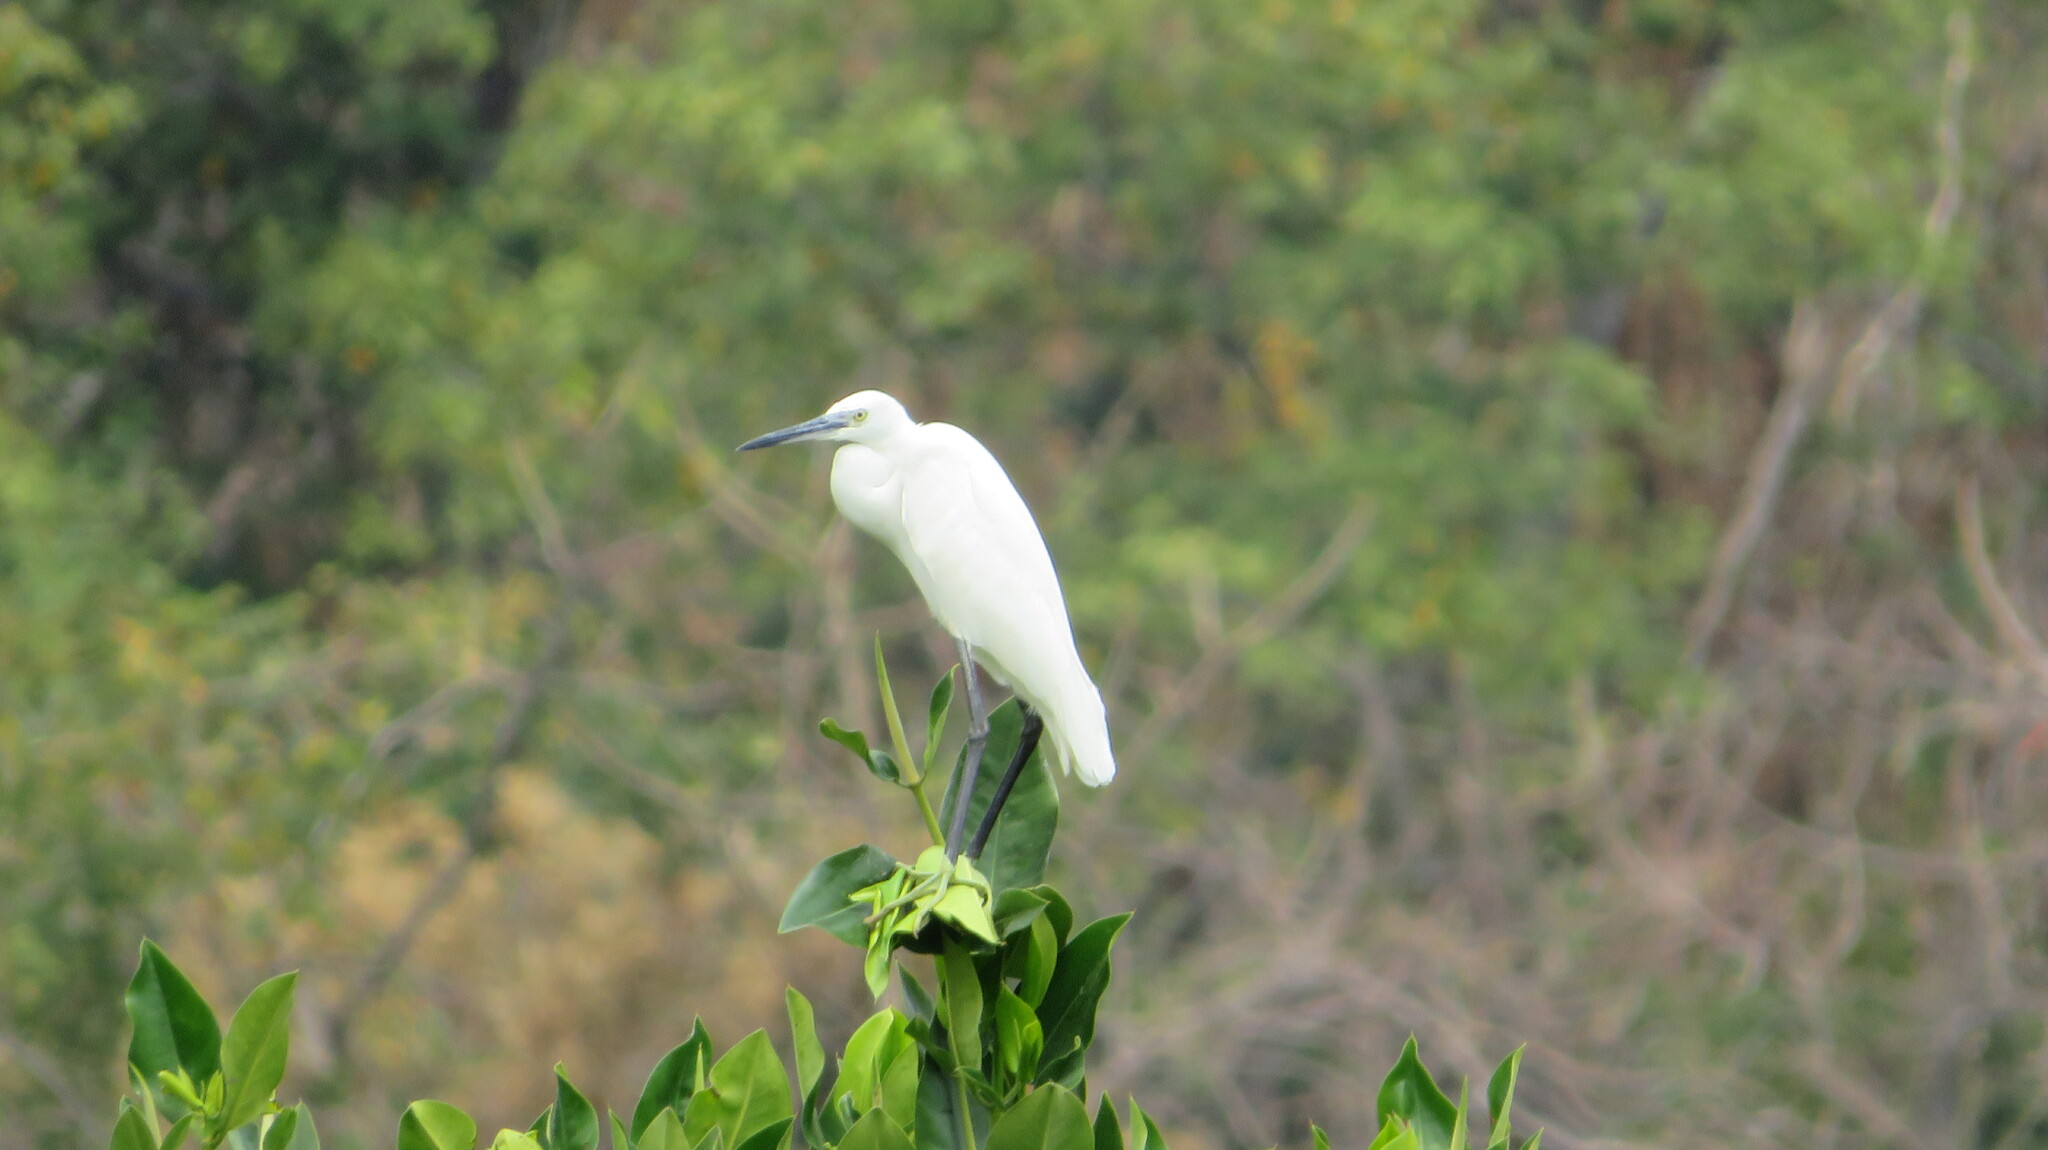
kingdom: Animalia
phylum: Chordata
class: Aves
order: Pelecaniformes
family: Ardeidae
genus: Egretta
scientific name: Egretta garzetta
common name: Little egret
